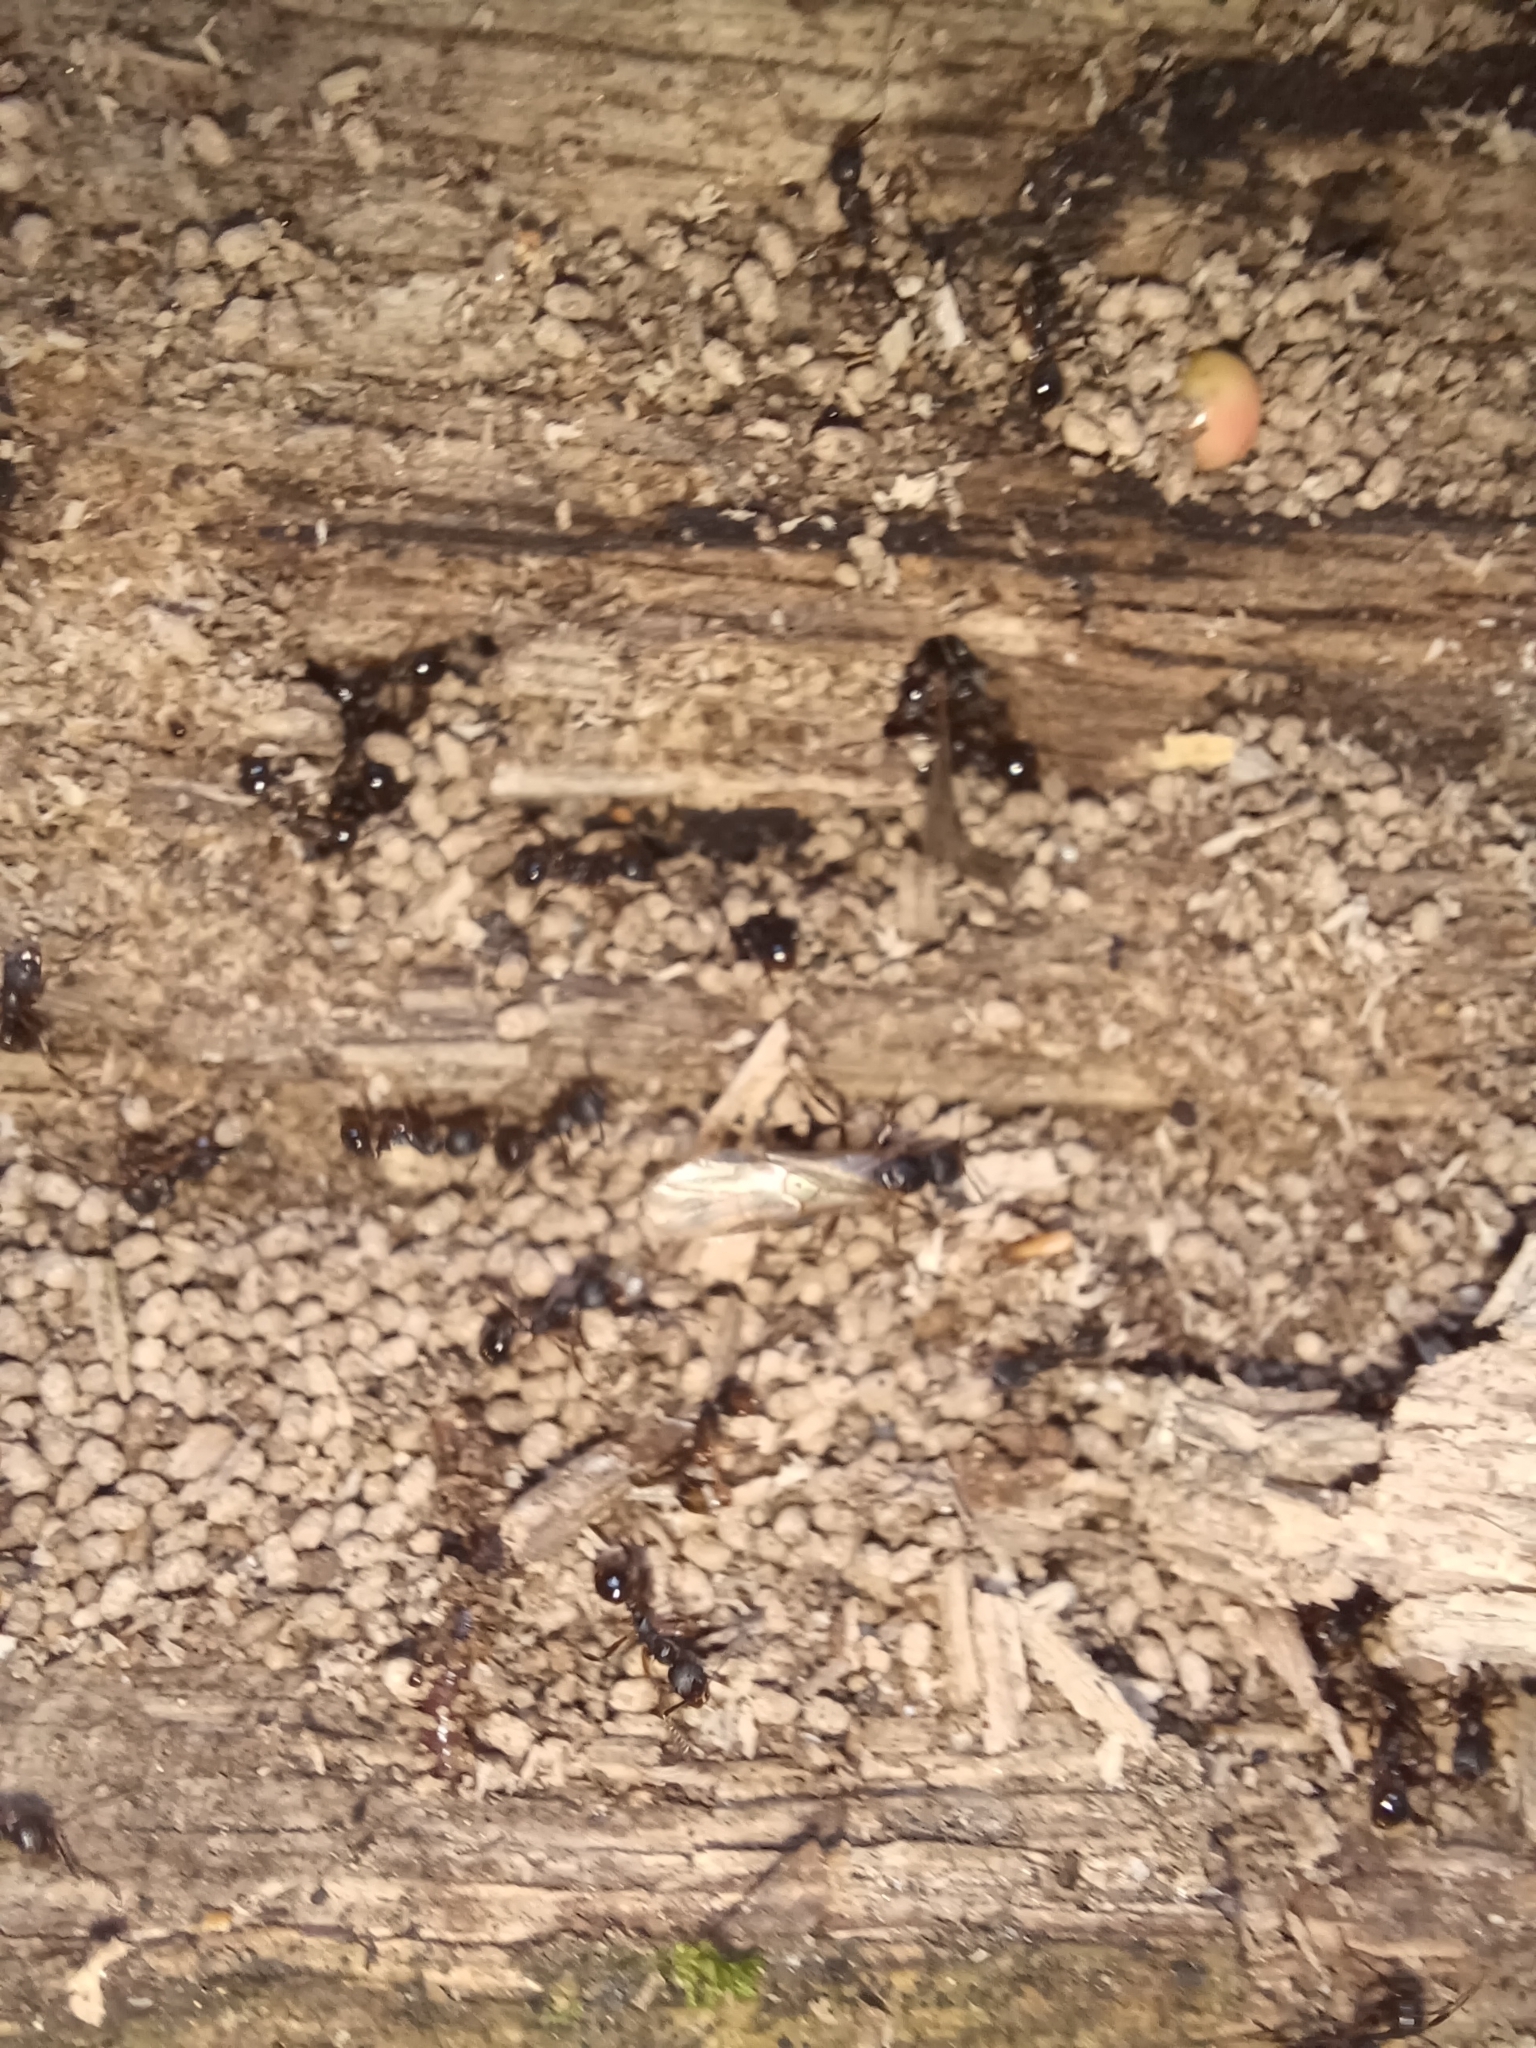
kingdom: Animalia
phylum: Arthropoda
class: Insecta
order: Hymenoptera
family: Formicidae
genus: Aphaenogaster
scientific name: Aphaenogaster picea
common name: Pitch-black collared ant
